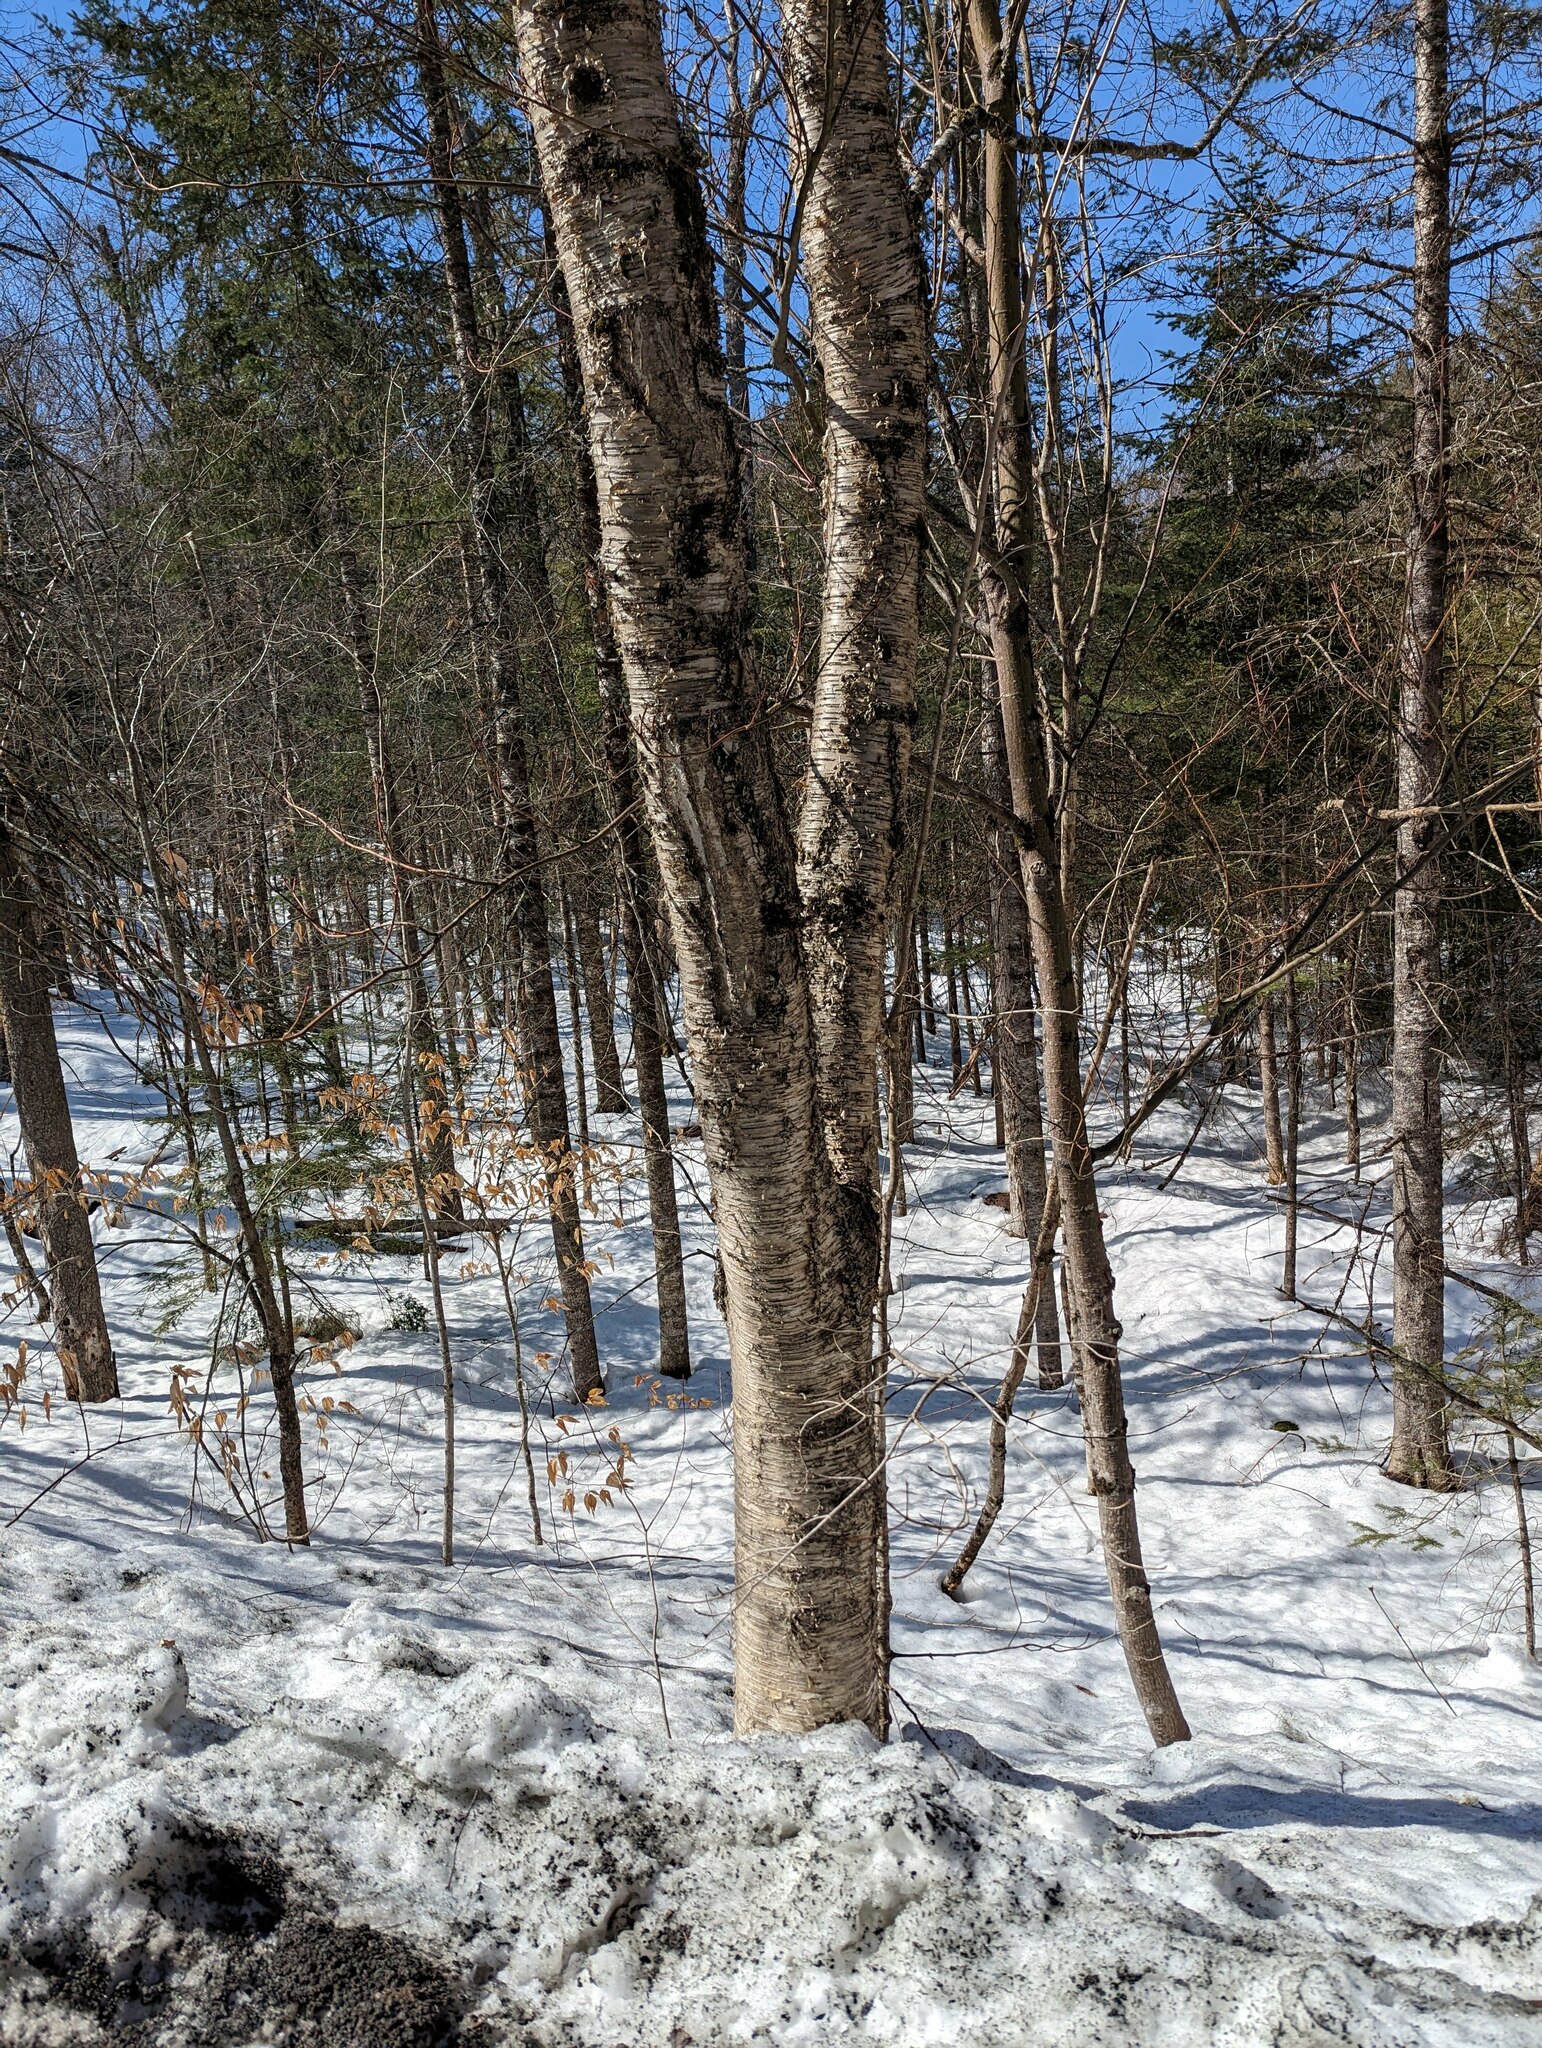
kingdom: Plantae
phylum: Tracheophyta
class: Magnoliopsida
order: Fagales
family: Betulaceae
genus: Betula
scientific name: Betula alleghaniensis
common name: Yellow birch
